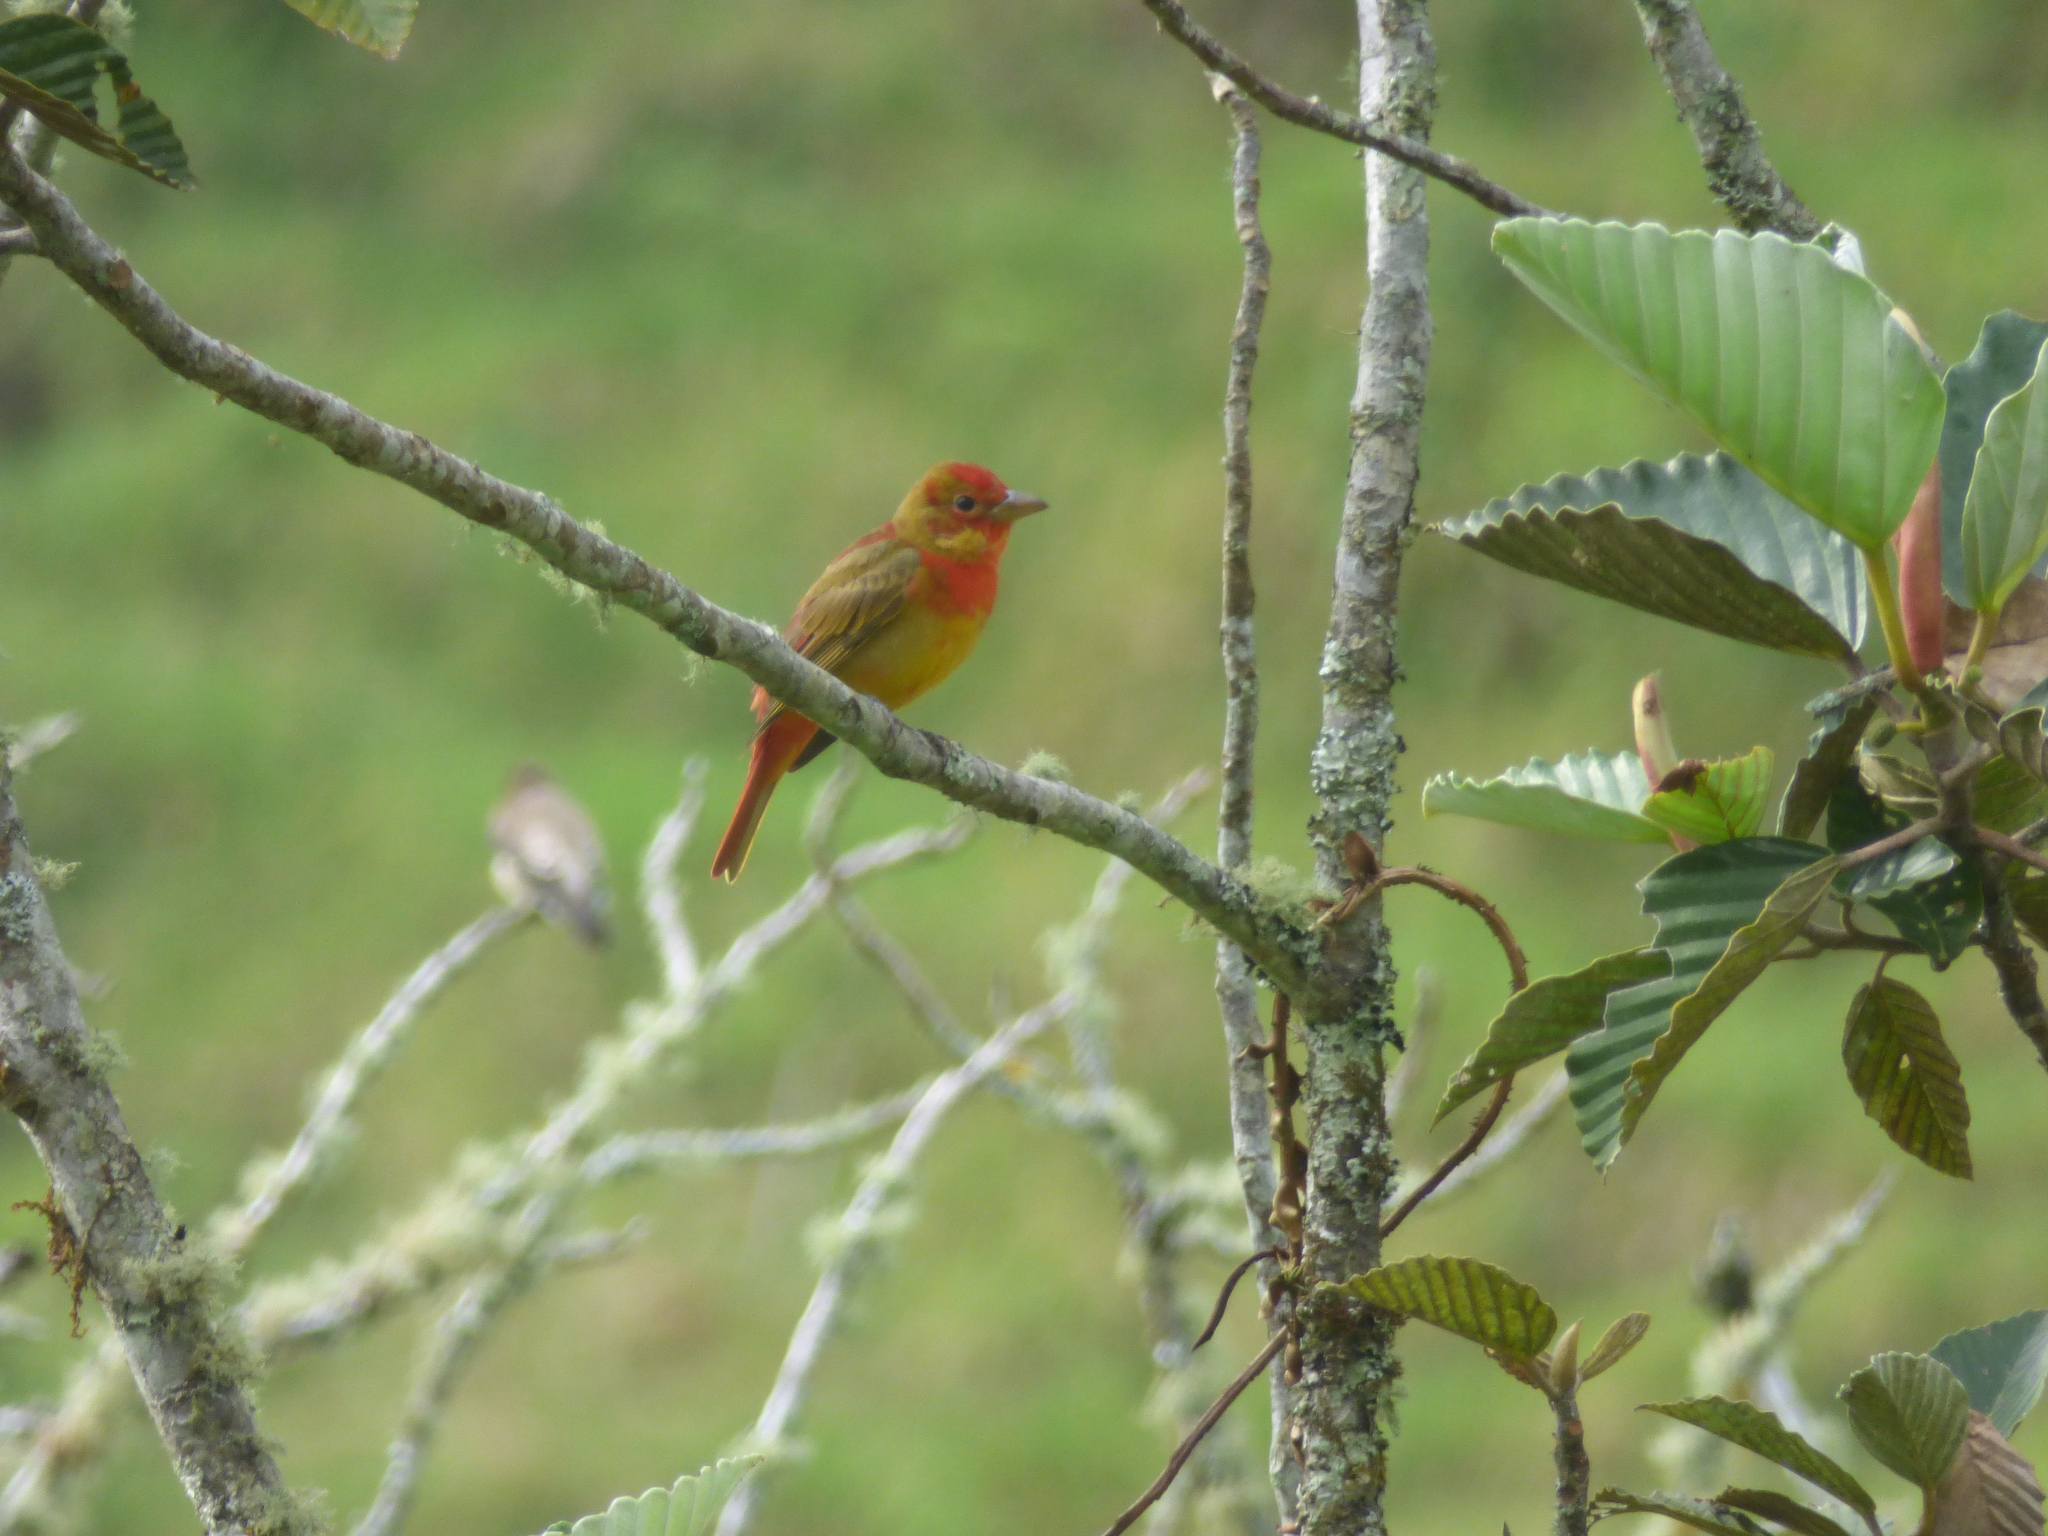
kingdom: Animalia
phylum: Chordata
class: Aves
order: Passeriformes
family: Cardinalidae
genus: Piranga
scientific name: Piranga rubra
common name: Summer tanager
